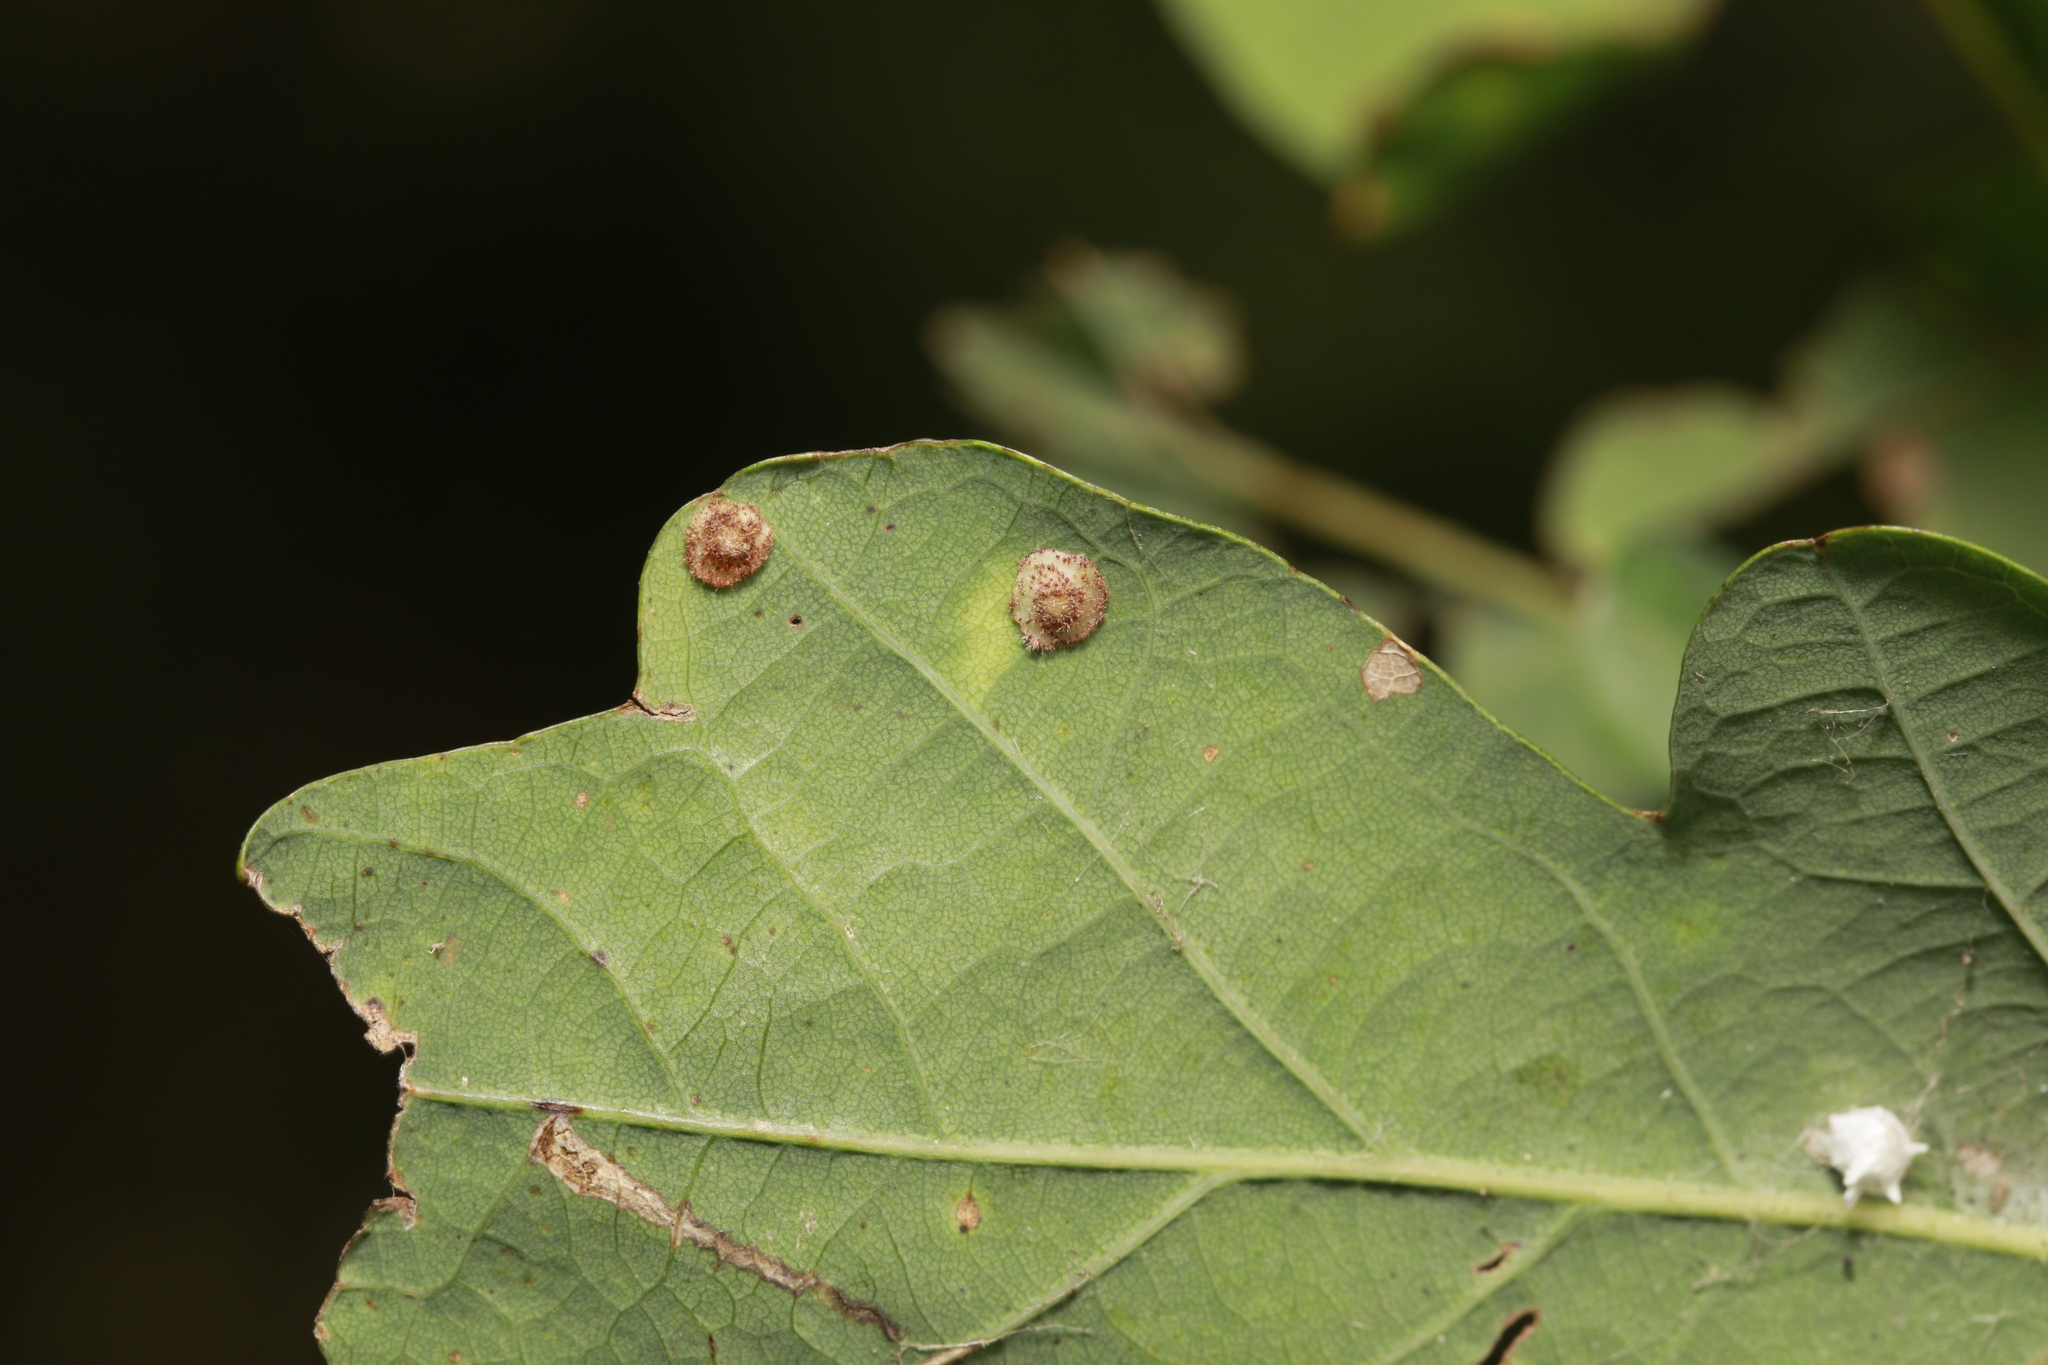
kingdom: Animalia
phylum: Arthropoda
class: Insecta
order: Hymenoptera
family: Cynipidae
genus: Neuroterus
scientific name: Neuroterus quercusbaccarum
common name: Common spangle gall
